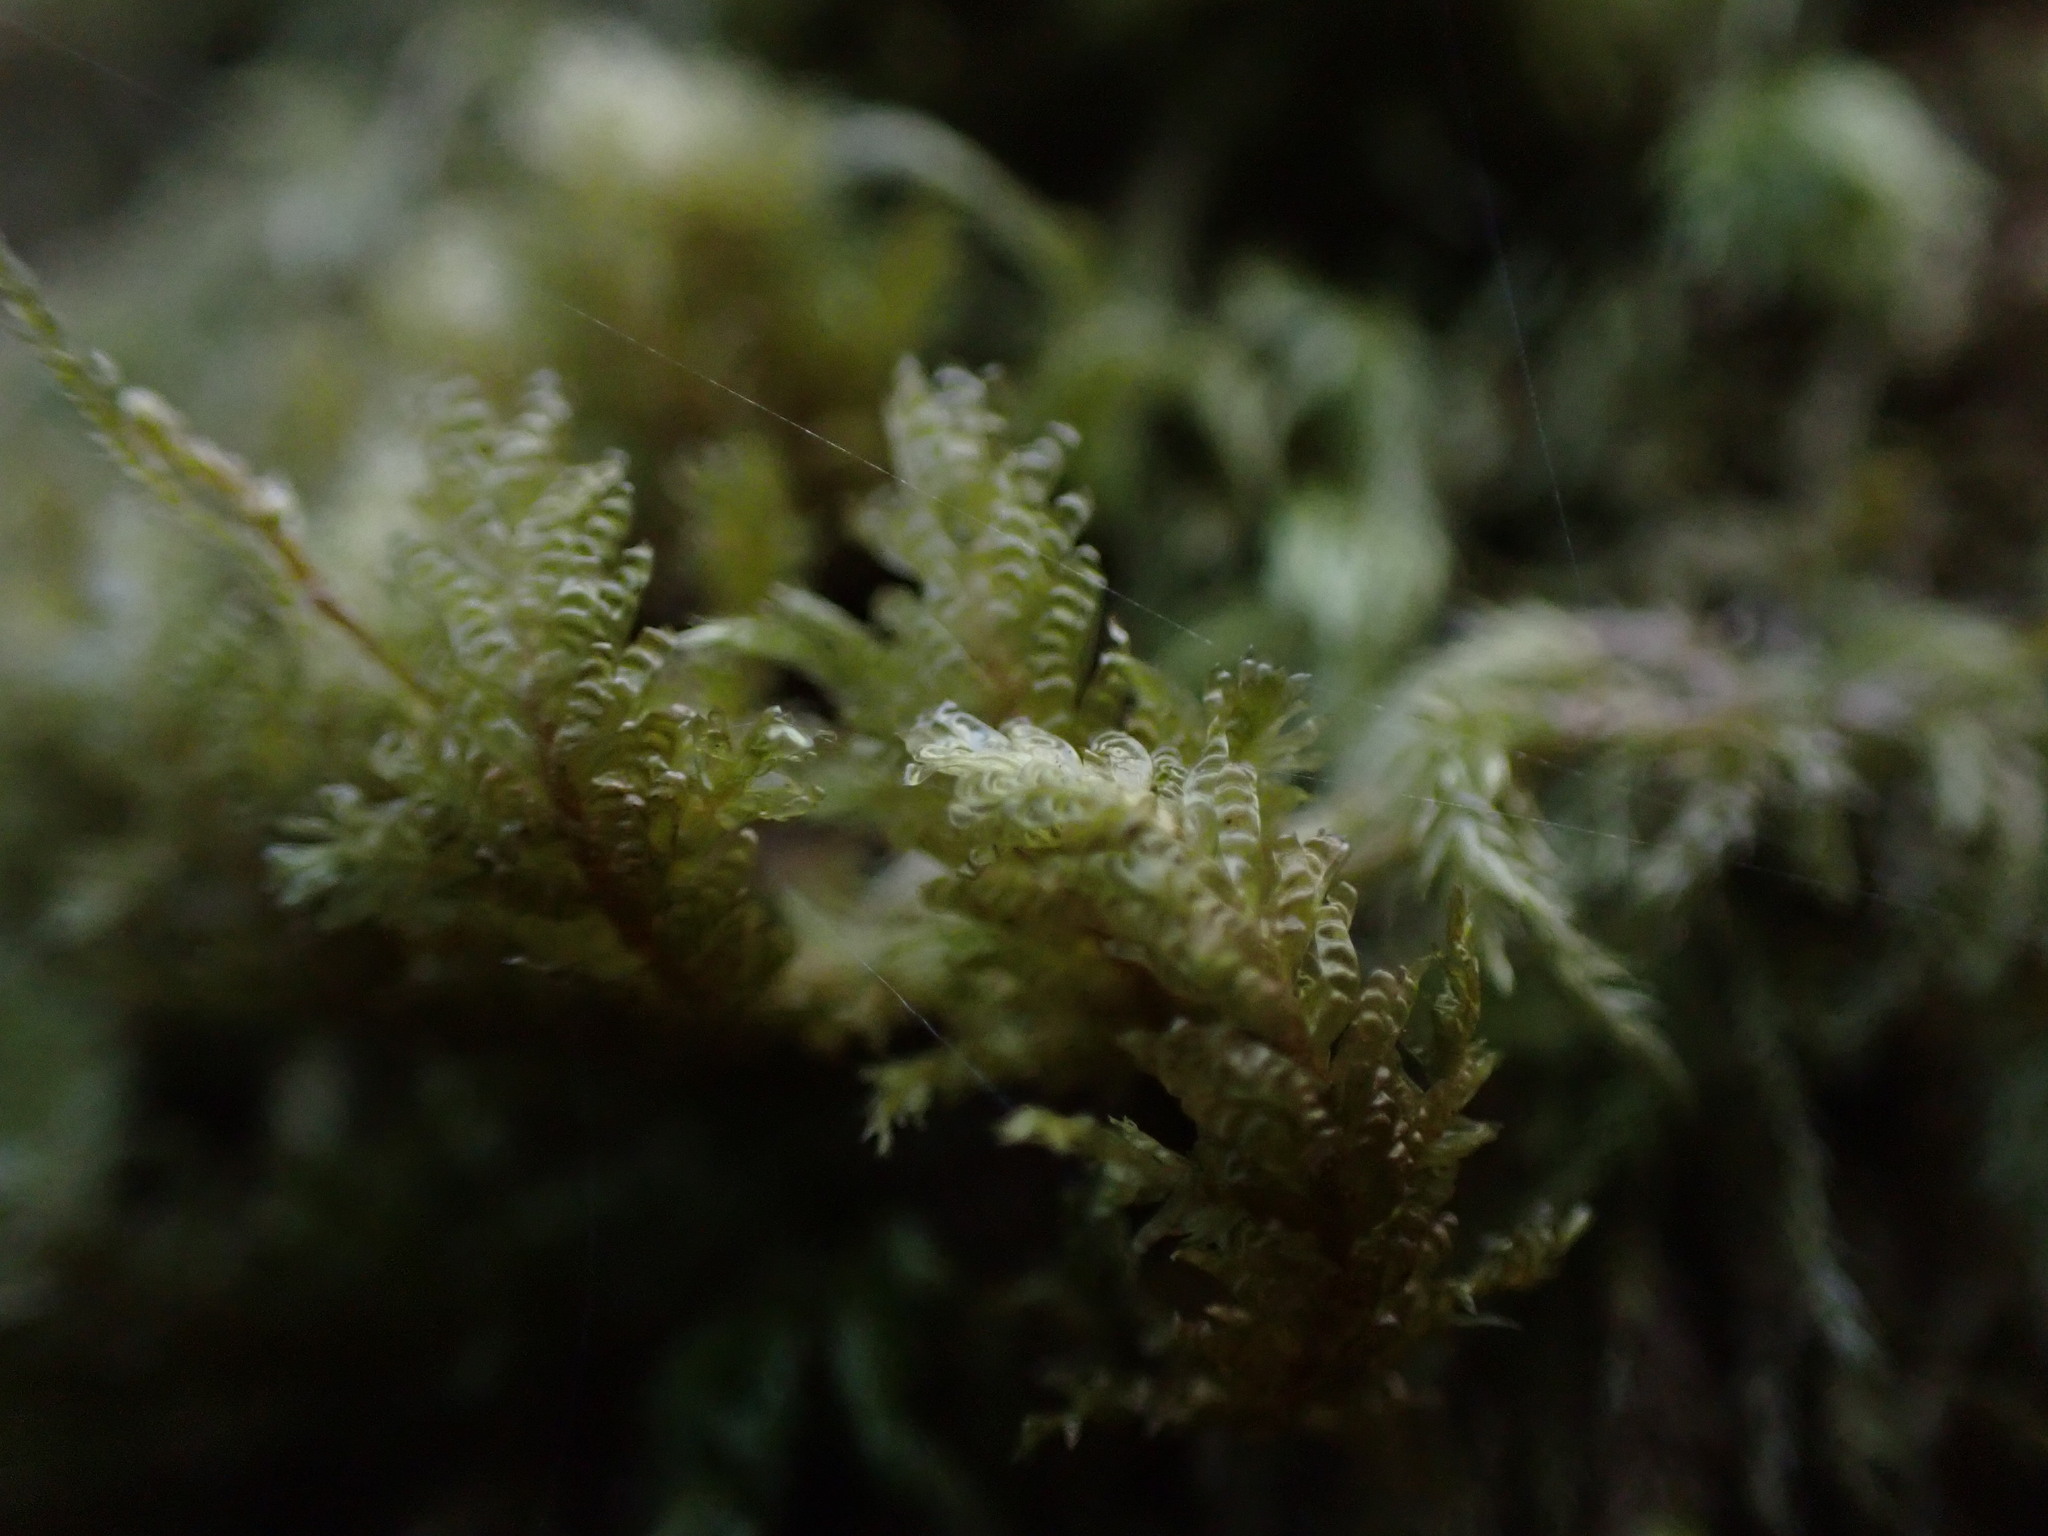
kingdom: Plantae
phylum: Bryophyta
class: Bryopsida
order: Hypnales
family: Neckeraceae
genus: Metaneckera
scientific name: Metaneckera menziesii
